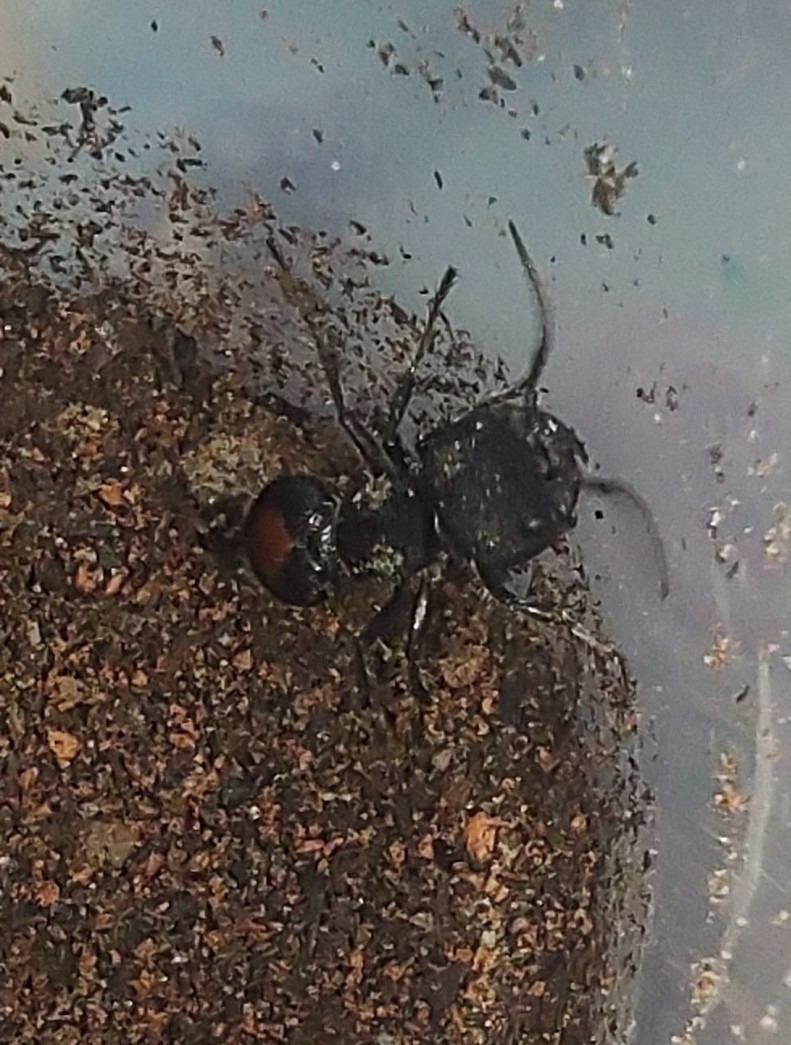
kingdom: Animalia
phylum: Arthropoda
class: Insecta
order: Hymenoptera
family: Mutillidae
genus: Hoplocrates
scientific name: Hoplocrates
